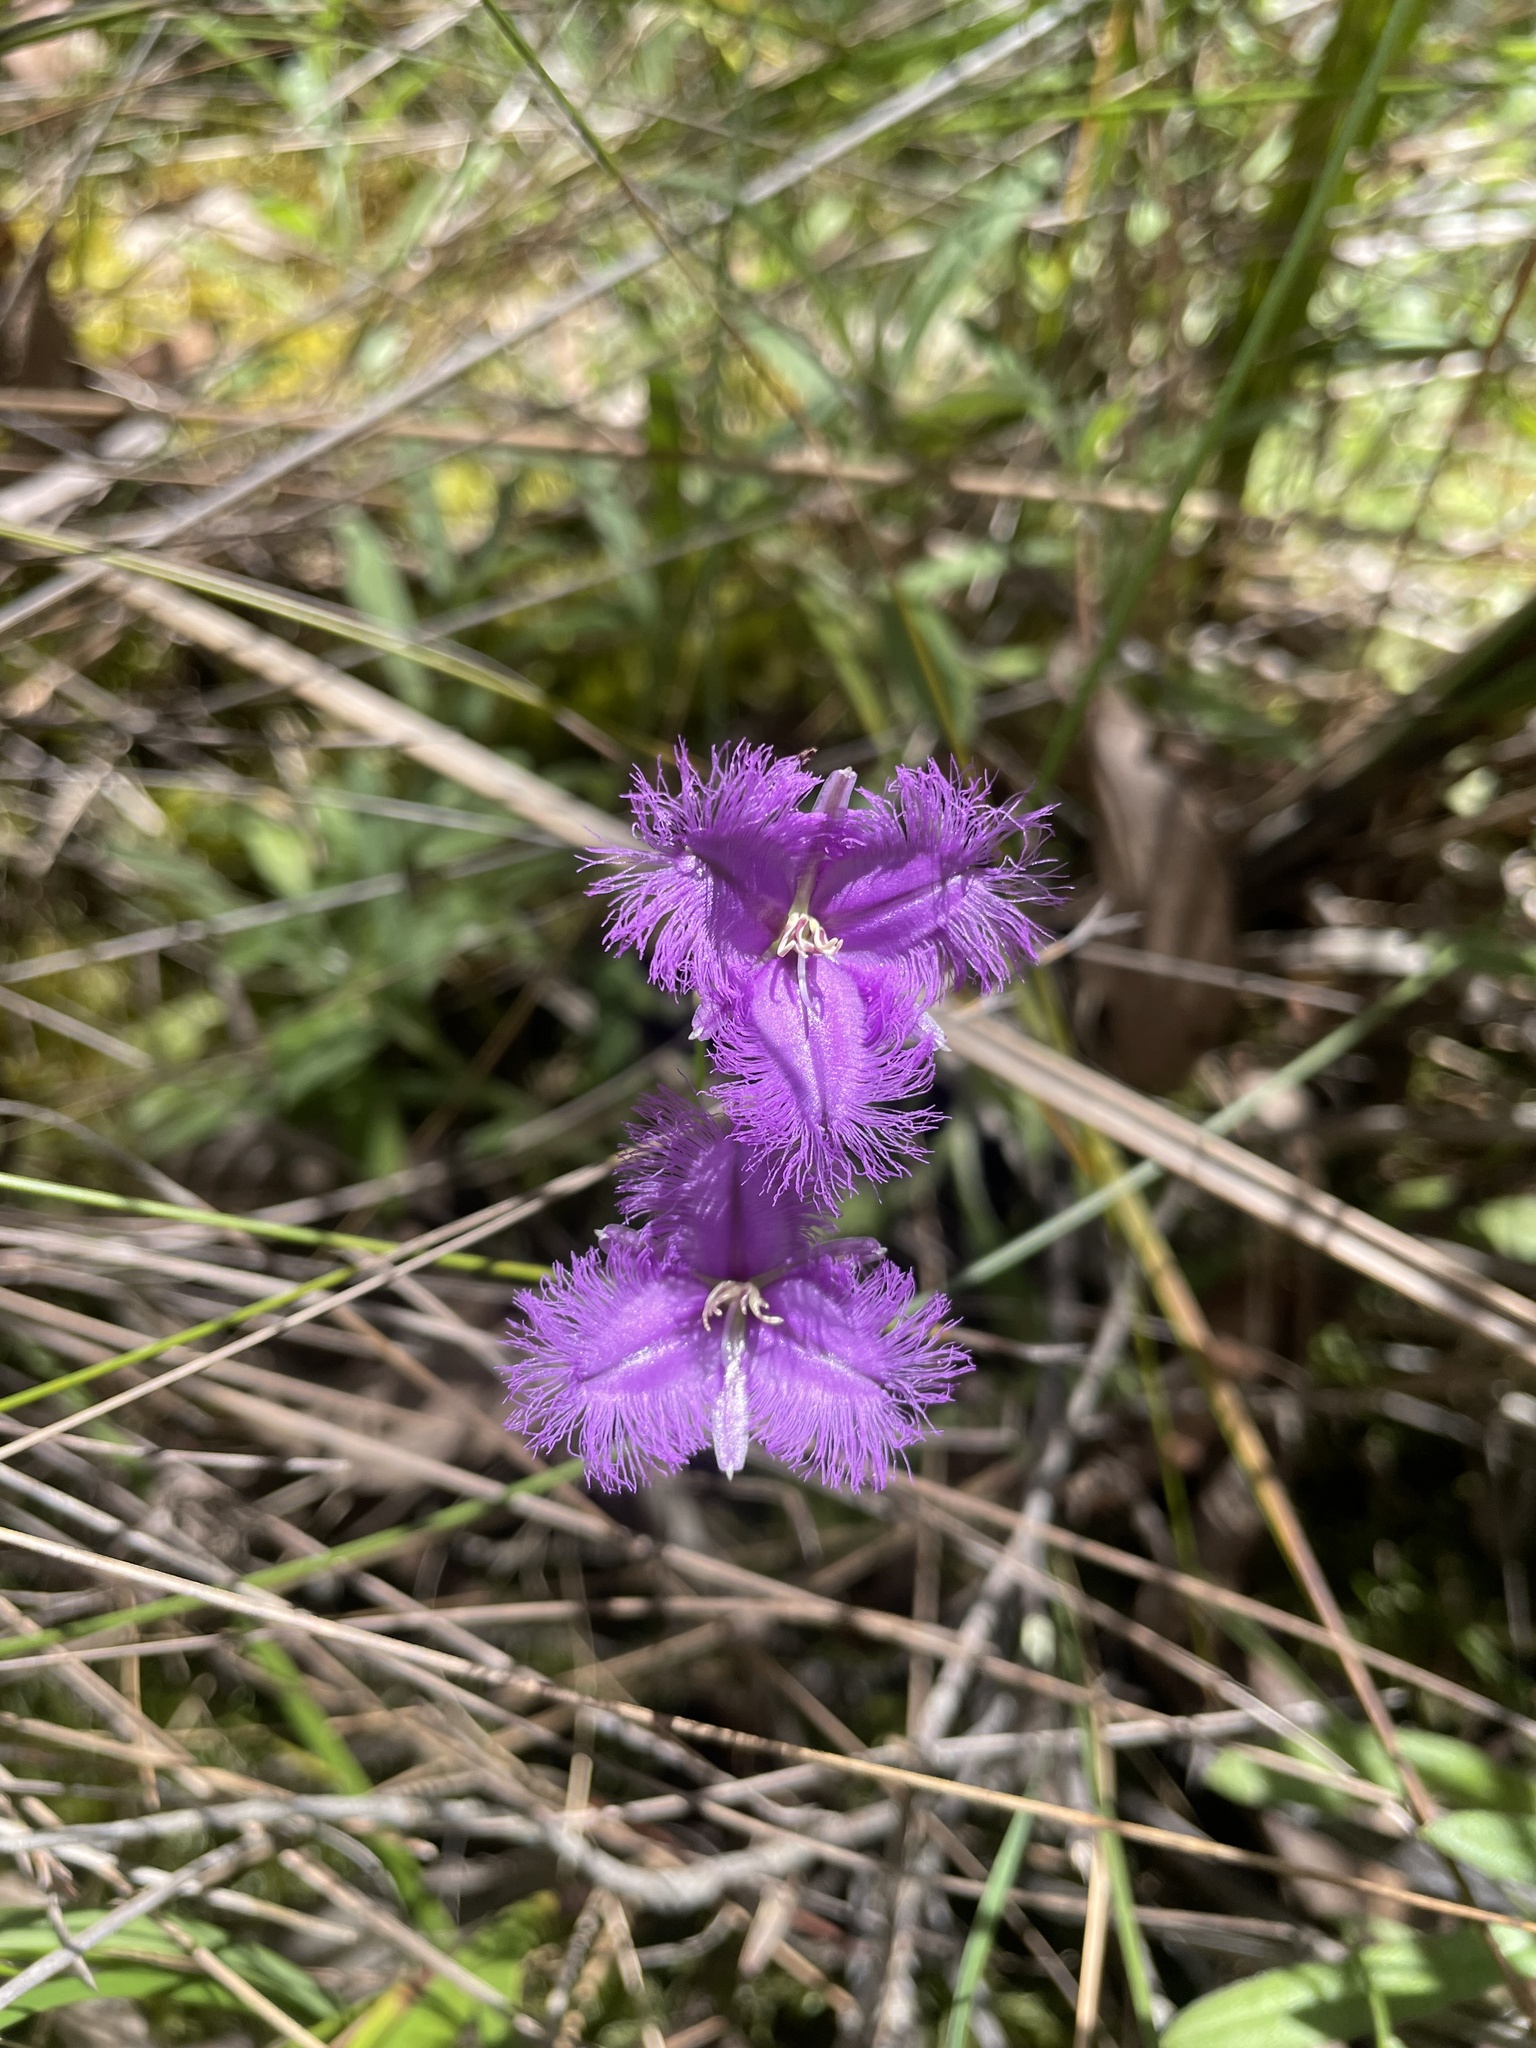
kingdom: Plantae
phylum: Tracheophyta
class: Liliopsida
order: Asparagales
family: Asparagaceae
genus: Thysanotus
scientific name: Thysanotus tuberosus
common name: Common fringed-lily
